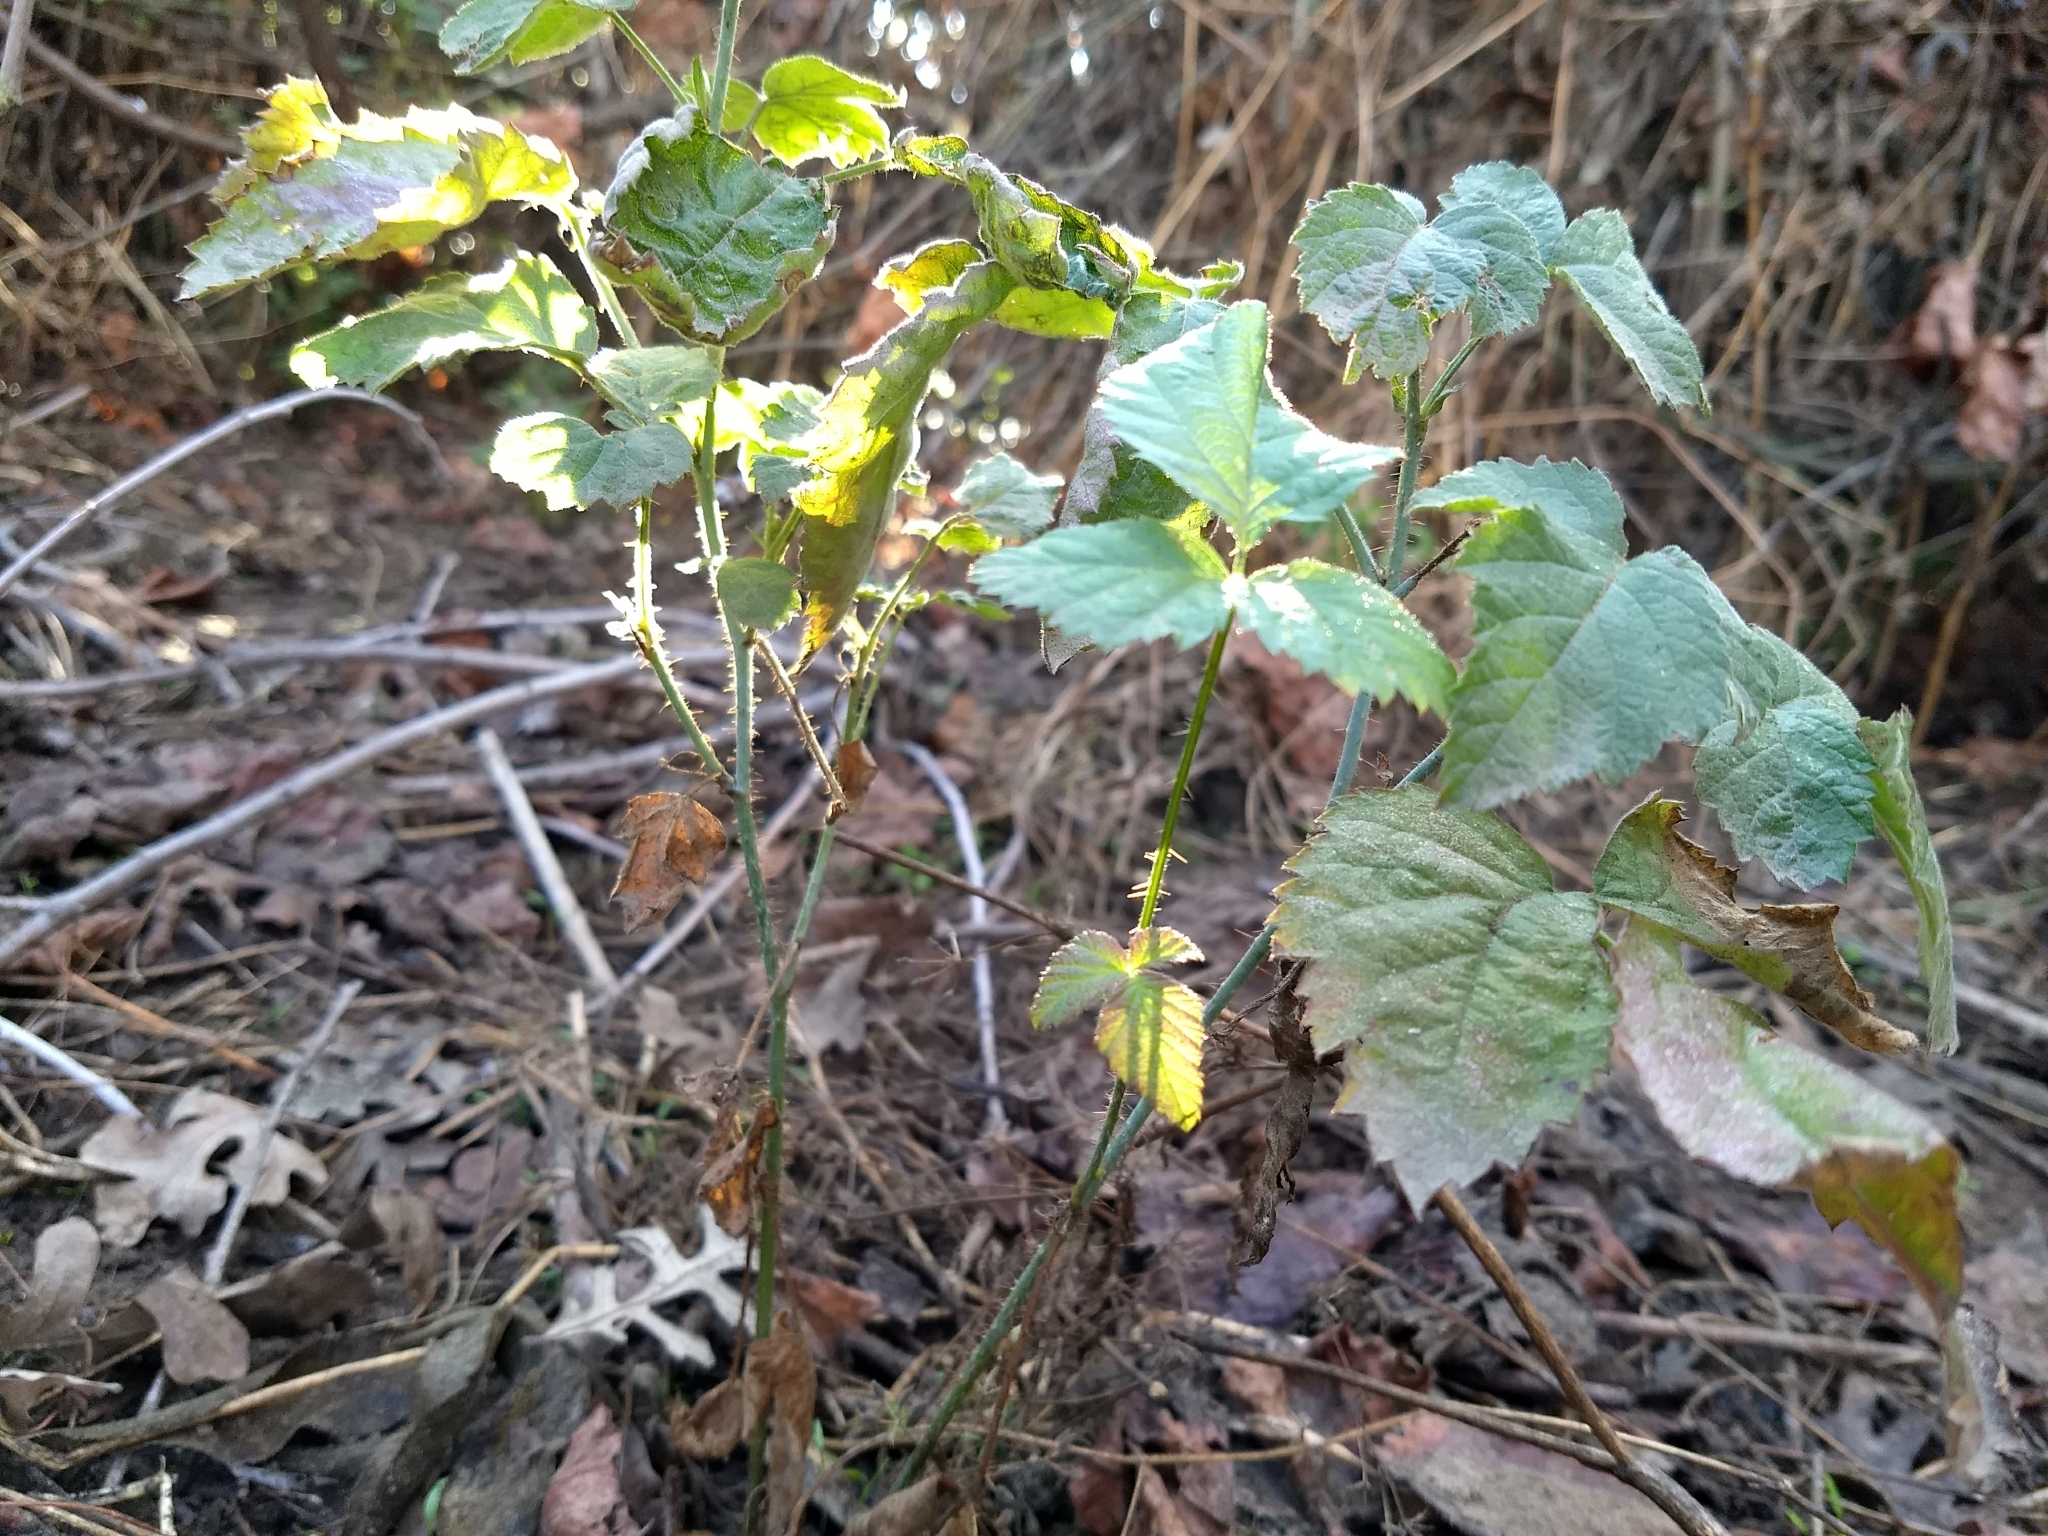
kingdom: Plantae
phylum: Tracheophyta
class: Magnoliopsida
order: Rosales
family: Rosaceae
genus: Rubus
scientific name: Rubus ursinus
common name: Pacific blackberry
